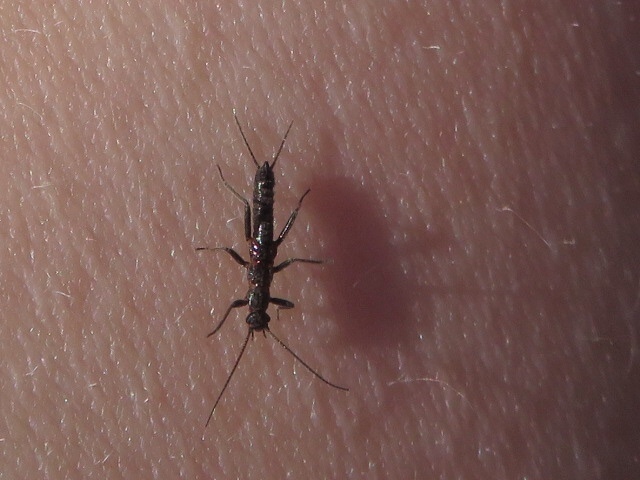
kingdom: Animalia
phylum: Arthropoda
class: Insecta
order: Plecoptera
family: Capniidae
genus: Allocapnia
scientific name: Allocapnia vivipara
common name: Shortwing snowfly
